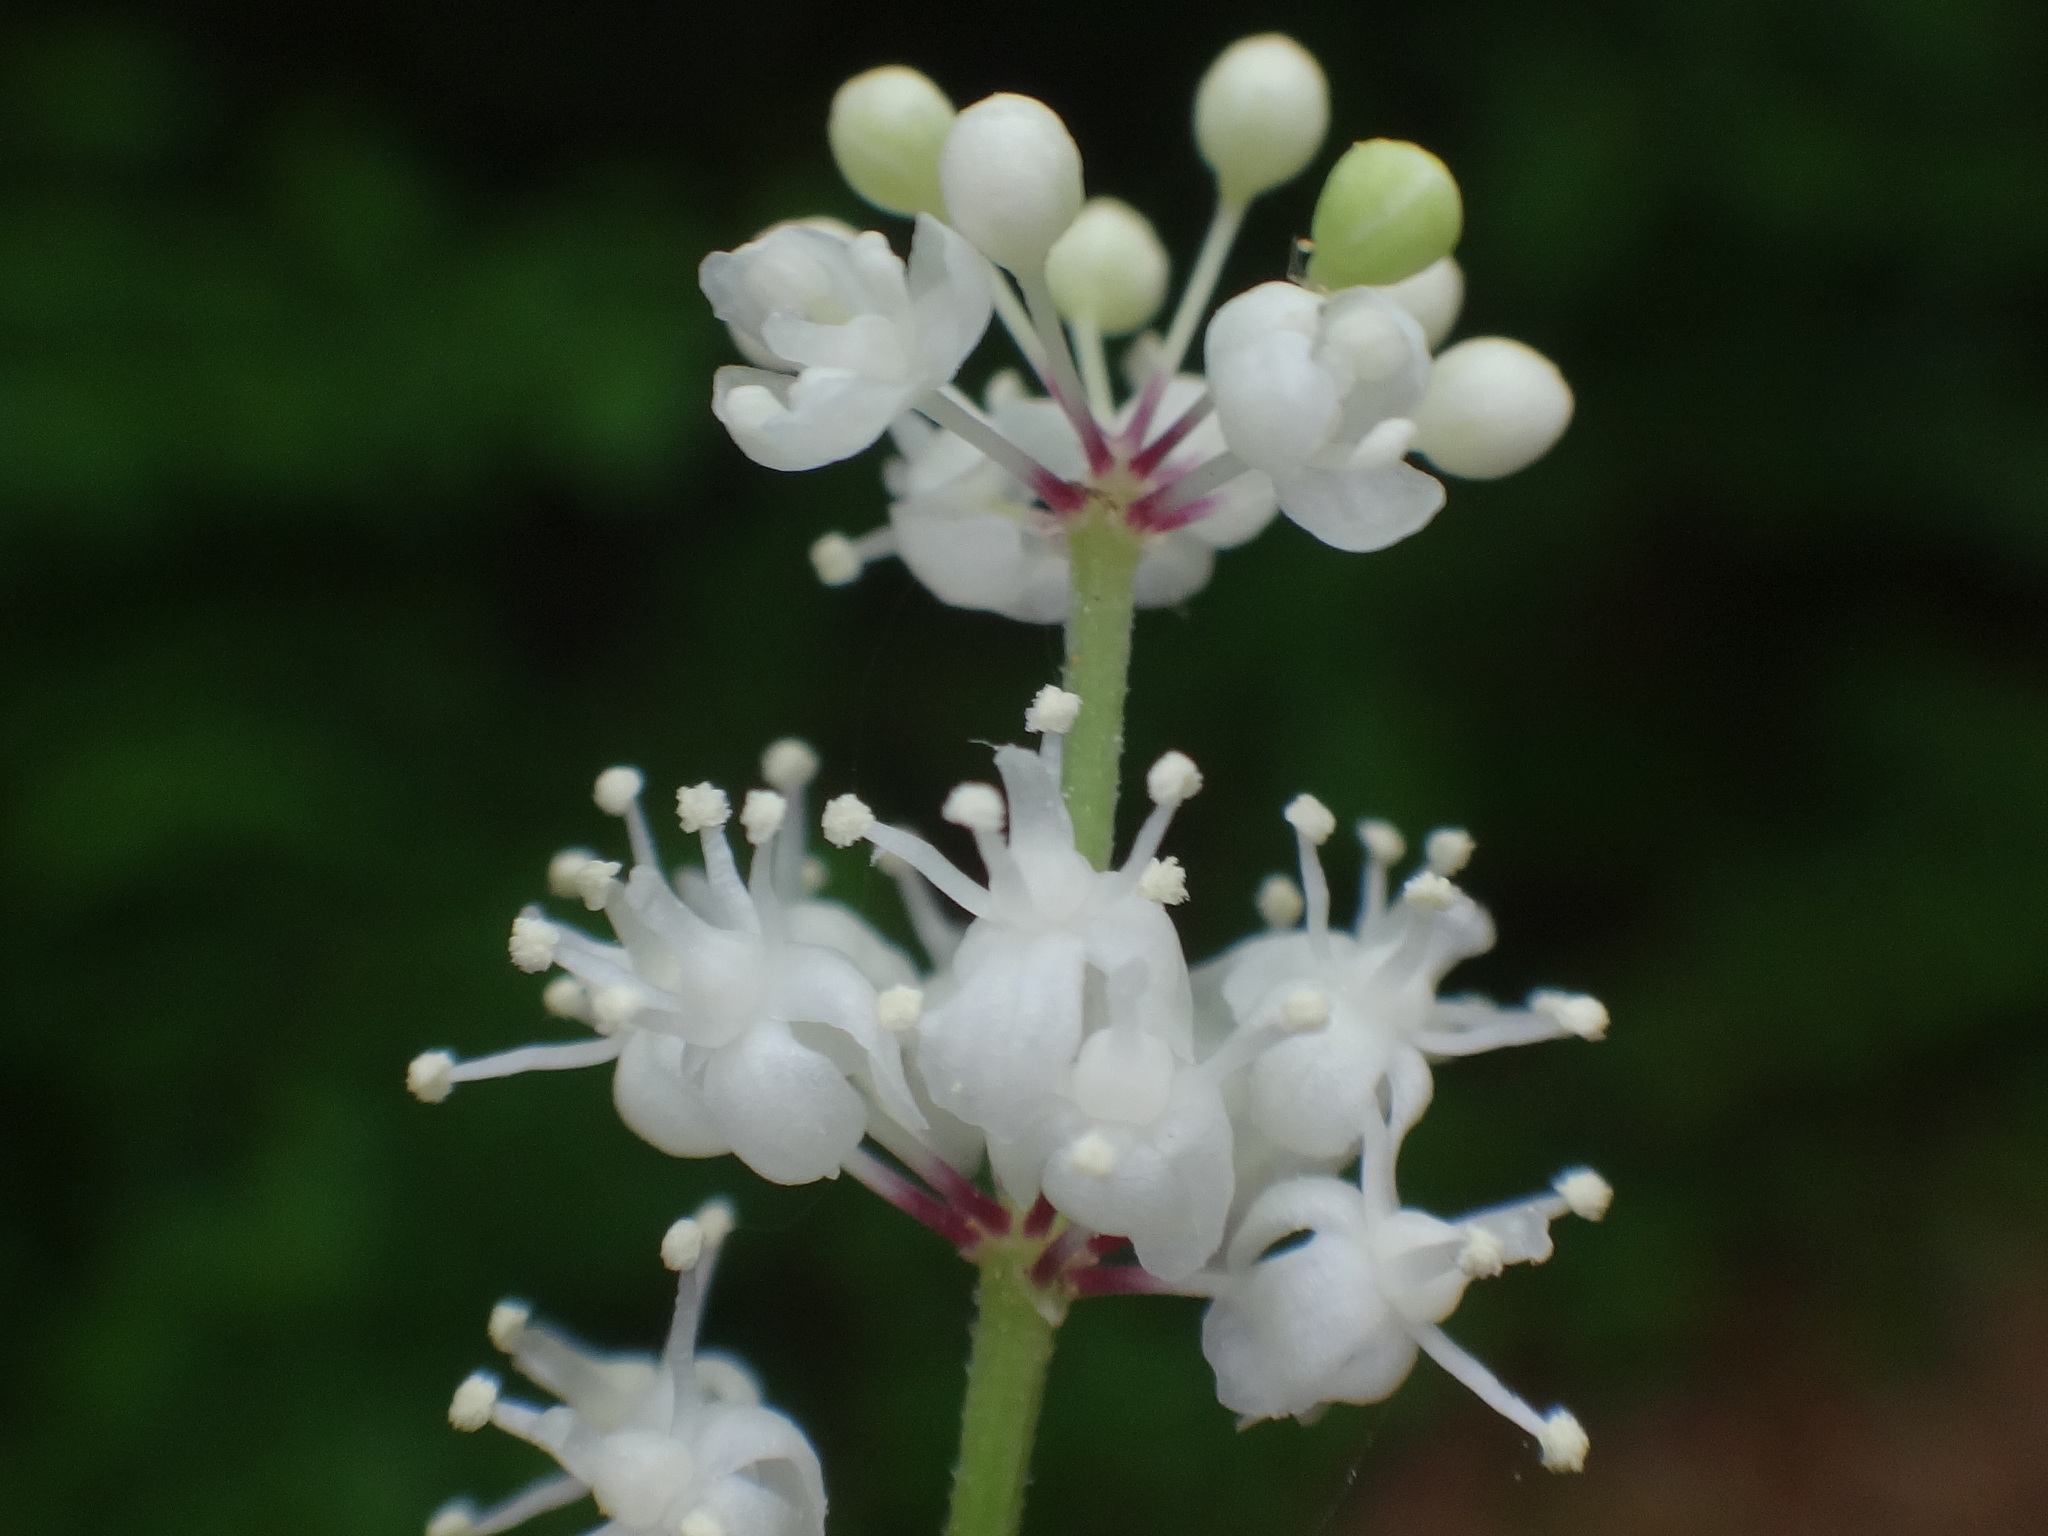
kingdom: Plantae
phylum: Tracheophyta
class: Liliopsida
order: Asparagales
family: Asparagaceae
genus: Maianthemum
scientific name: Maianthemum bifolium
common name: May lily
